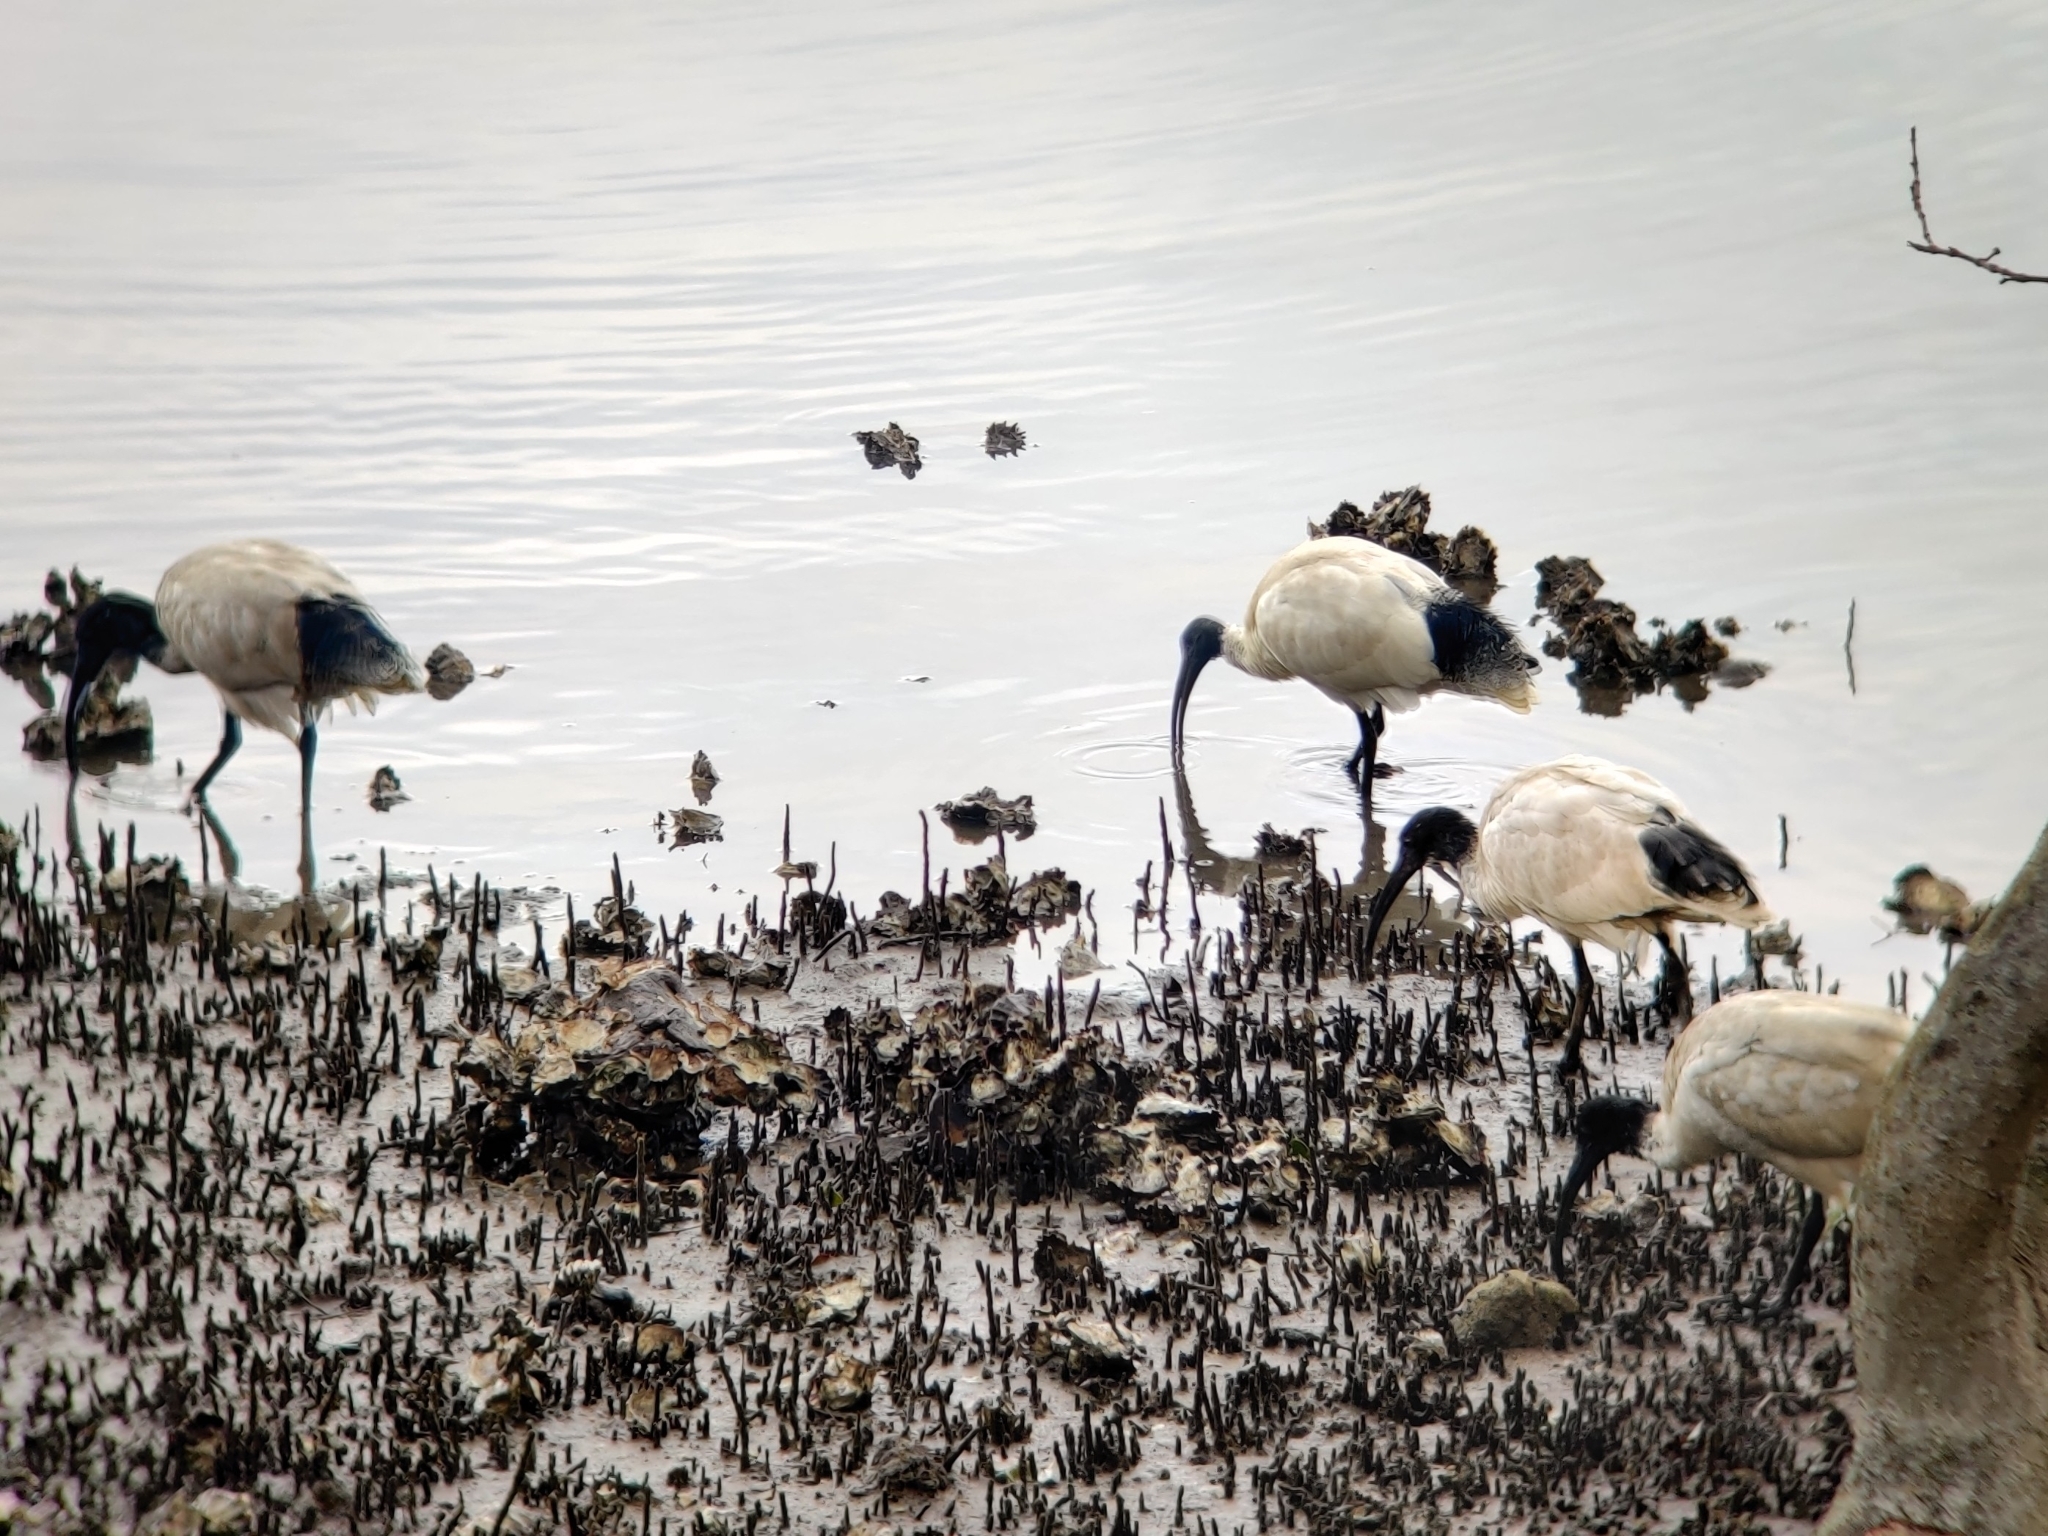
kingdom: Animalia
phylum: Chordata
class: Aves
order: Pelecaniformes
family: Threskiornithidae
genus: Threskiornis
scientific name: Threskiornis molucca
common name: Australian white ibis
